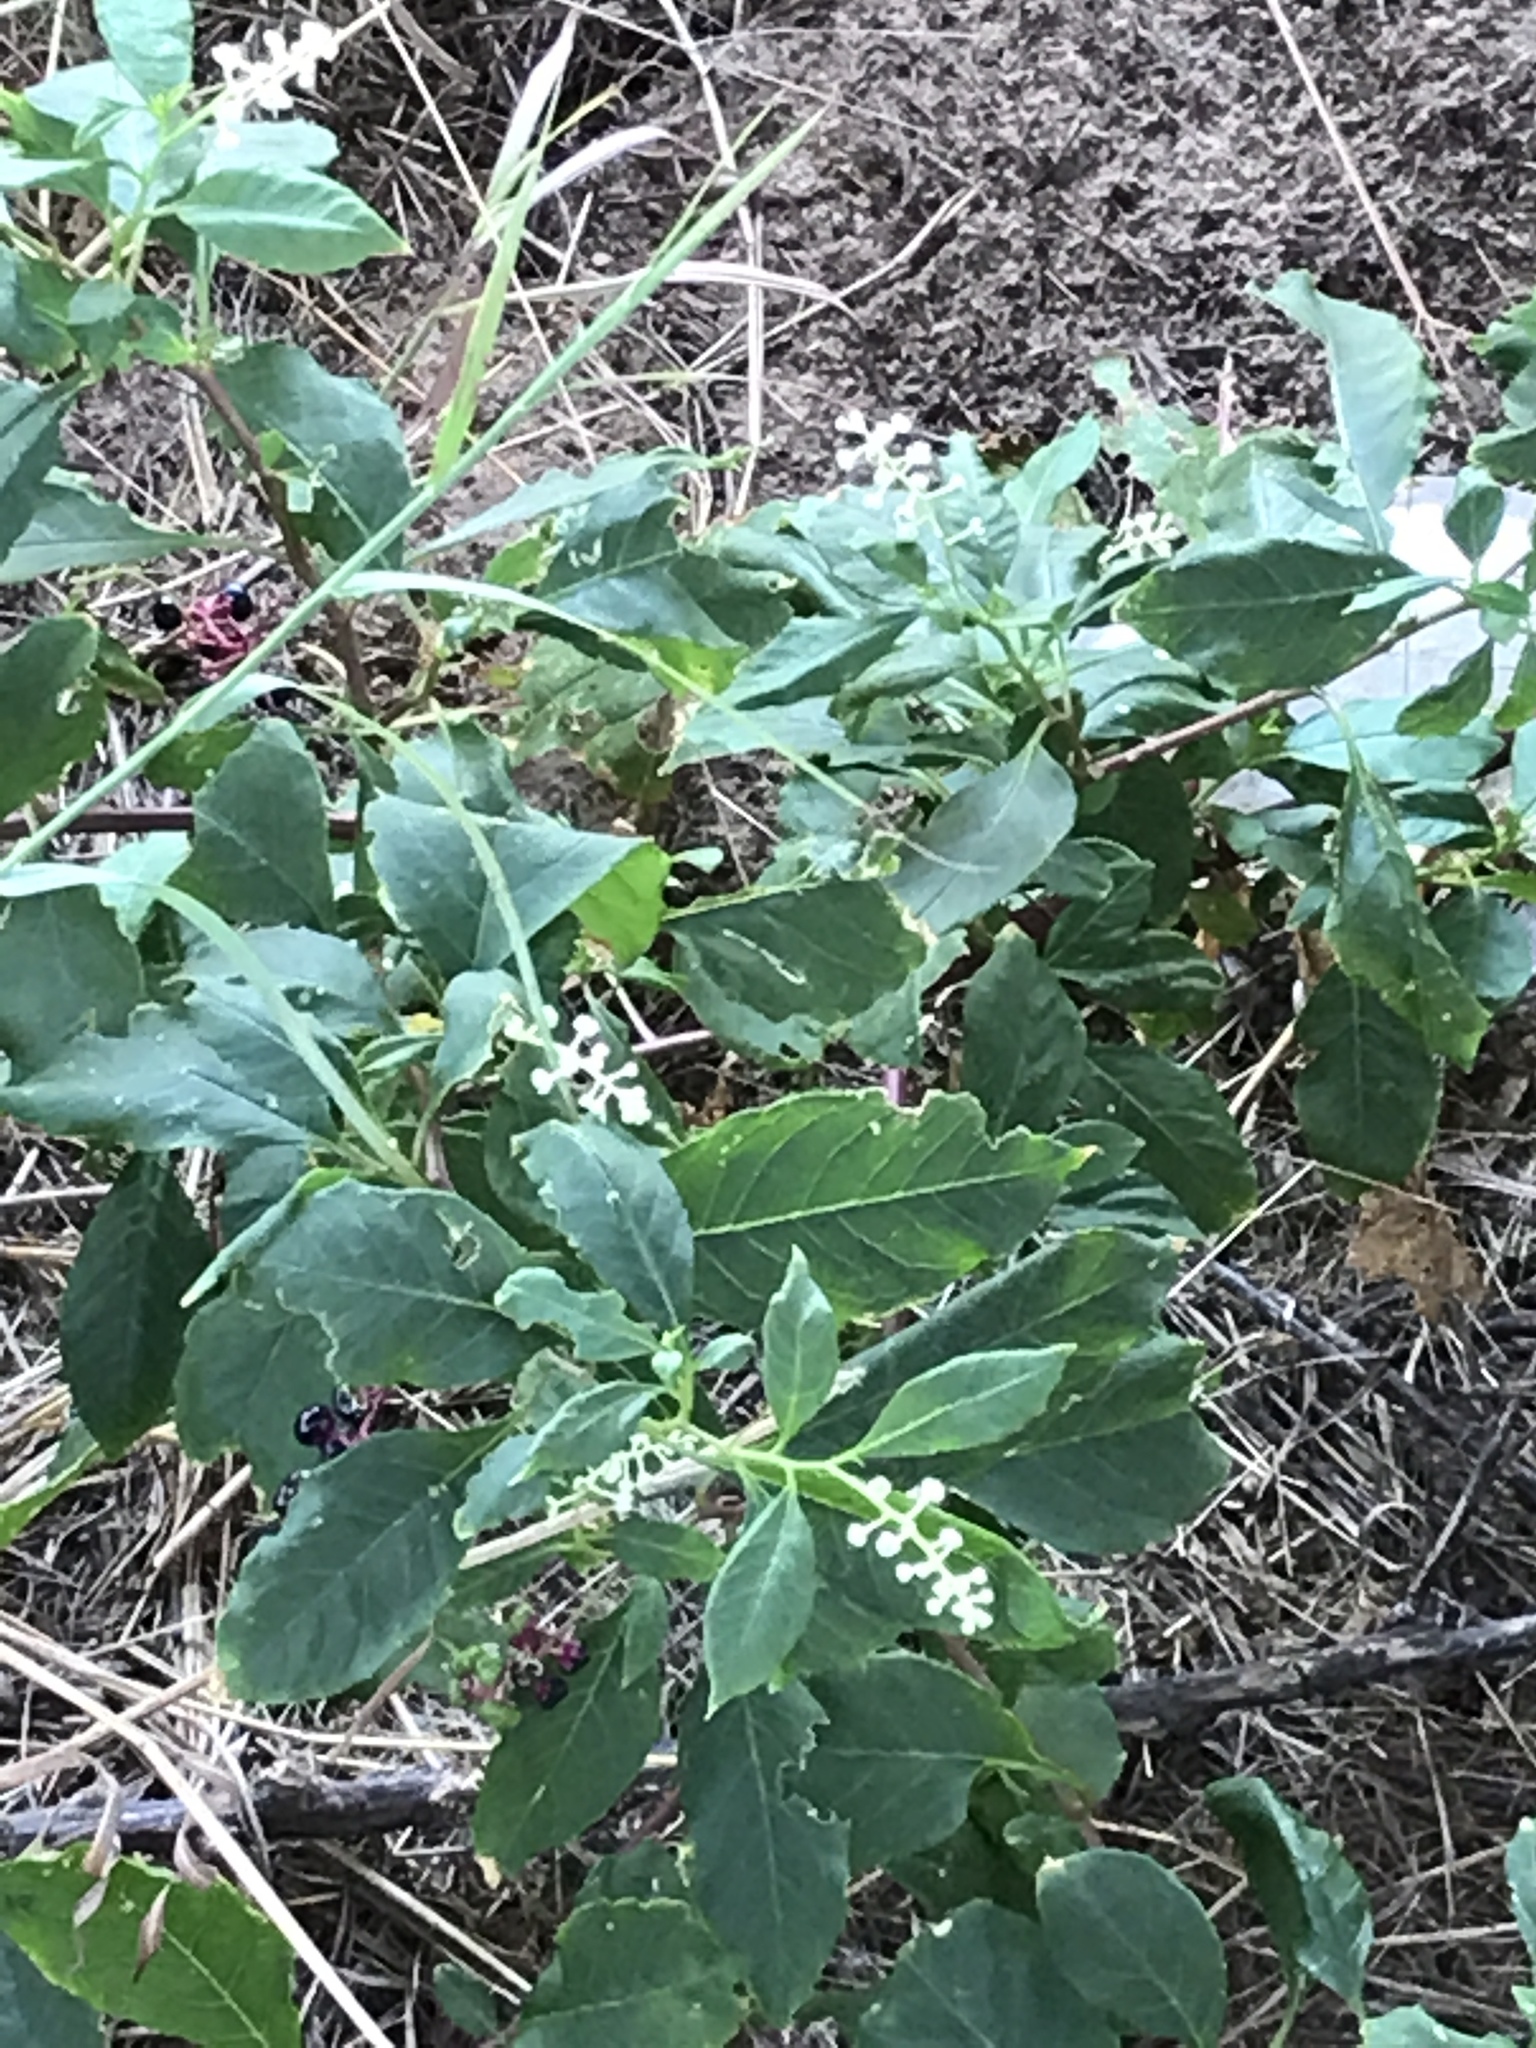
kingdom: Plantae
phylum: Tracheophyta
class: Magnoliopsida
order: Caryophyllales
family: Phytolaccaceae
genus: Phytolacca
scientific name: Phytolacca americana
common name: American pokeweed
